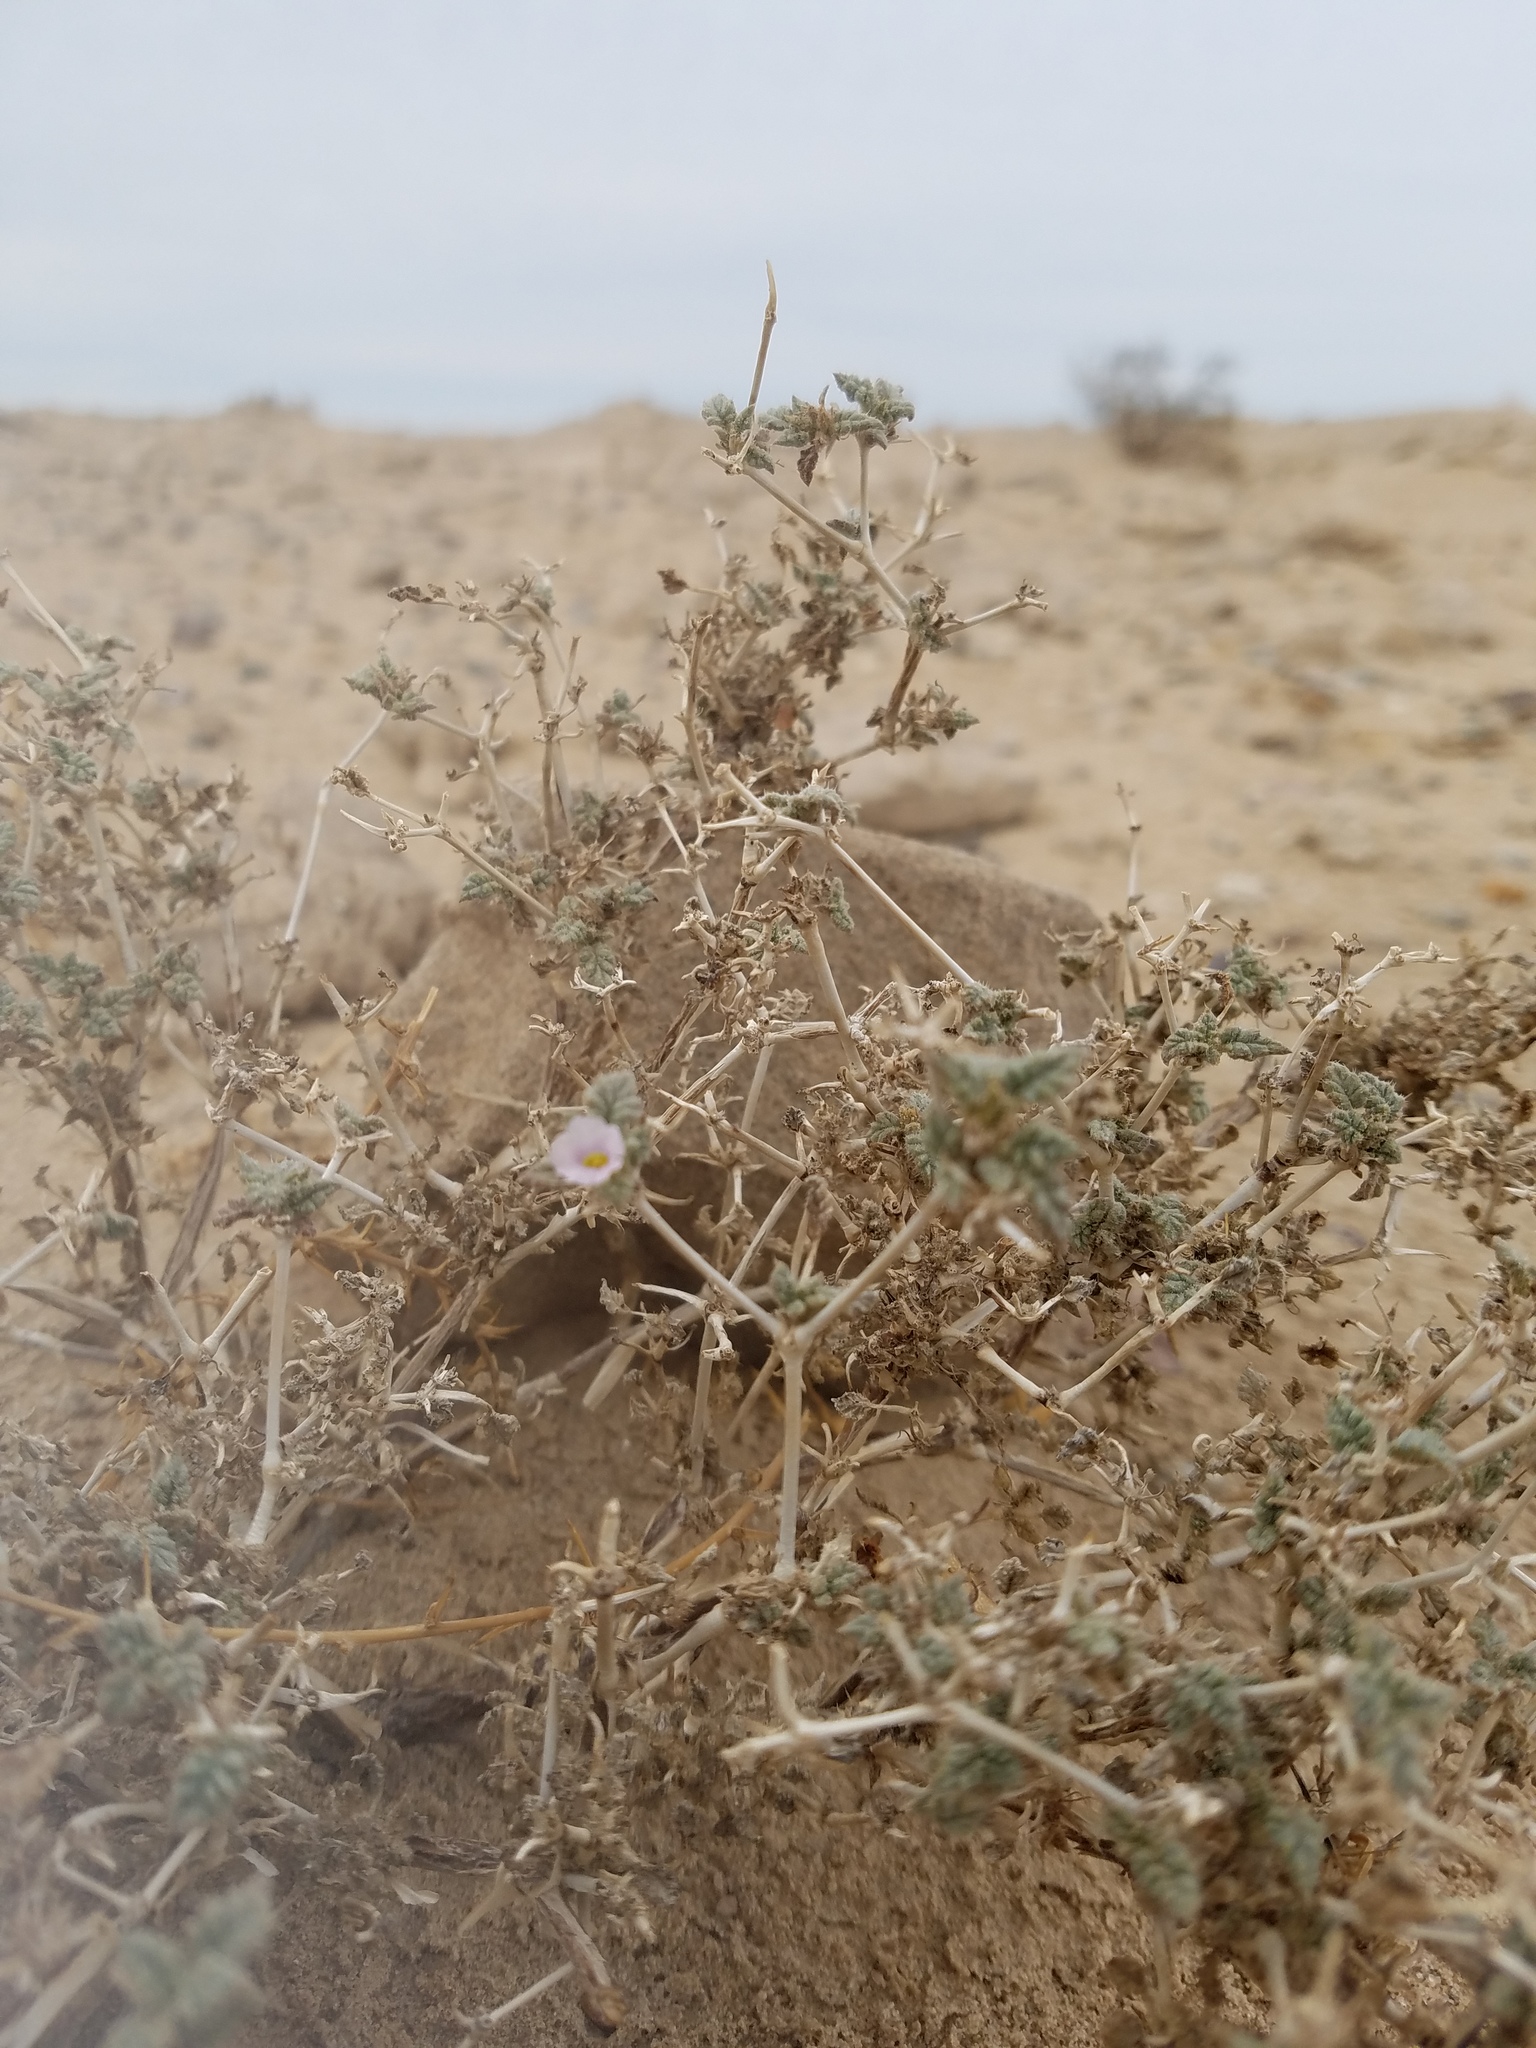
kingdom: Plantae
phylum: Tracheophyta
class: Magnoliopsida
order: Boraginales
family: Ehretiaceae
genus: Tiquilia
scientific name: Tiquilia palmeri
